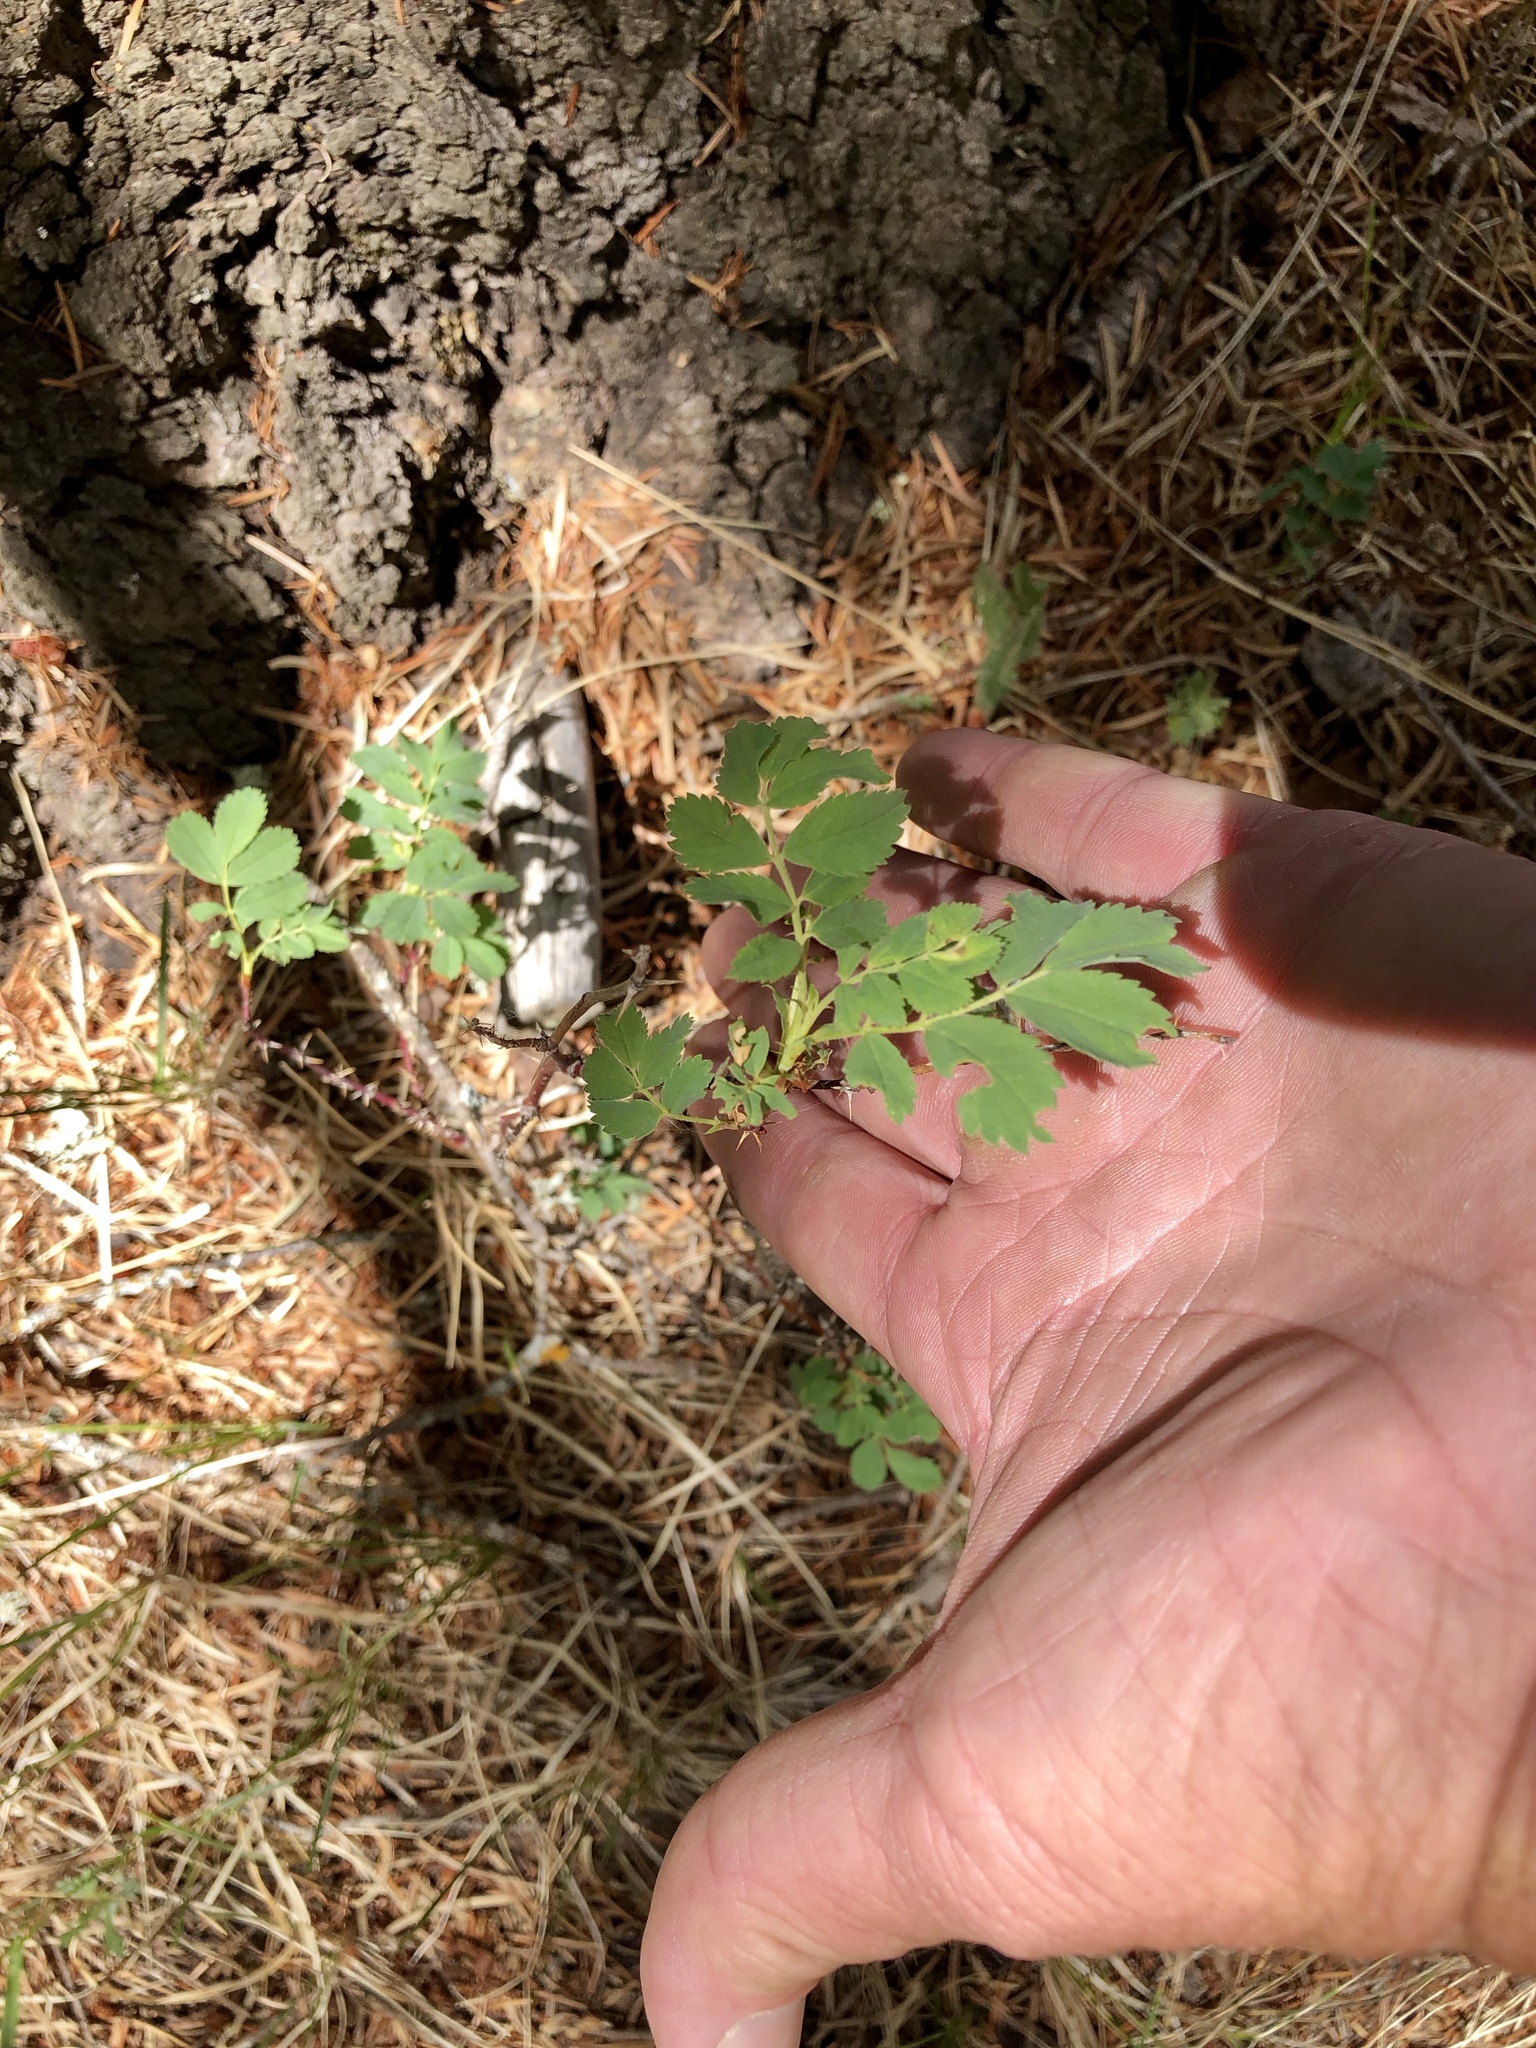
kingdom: Plantae
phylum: Tracheophyta
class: Magnoliopsida
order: Rosales
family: Rosaceae
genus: Rosa
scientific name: Rosa woodsii
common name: Woods's rose
